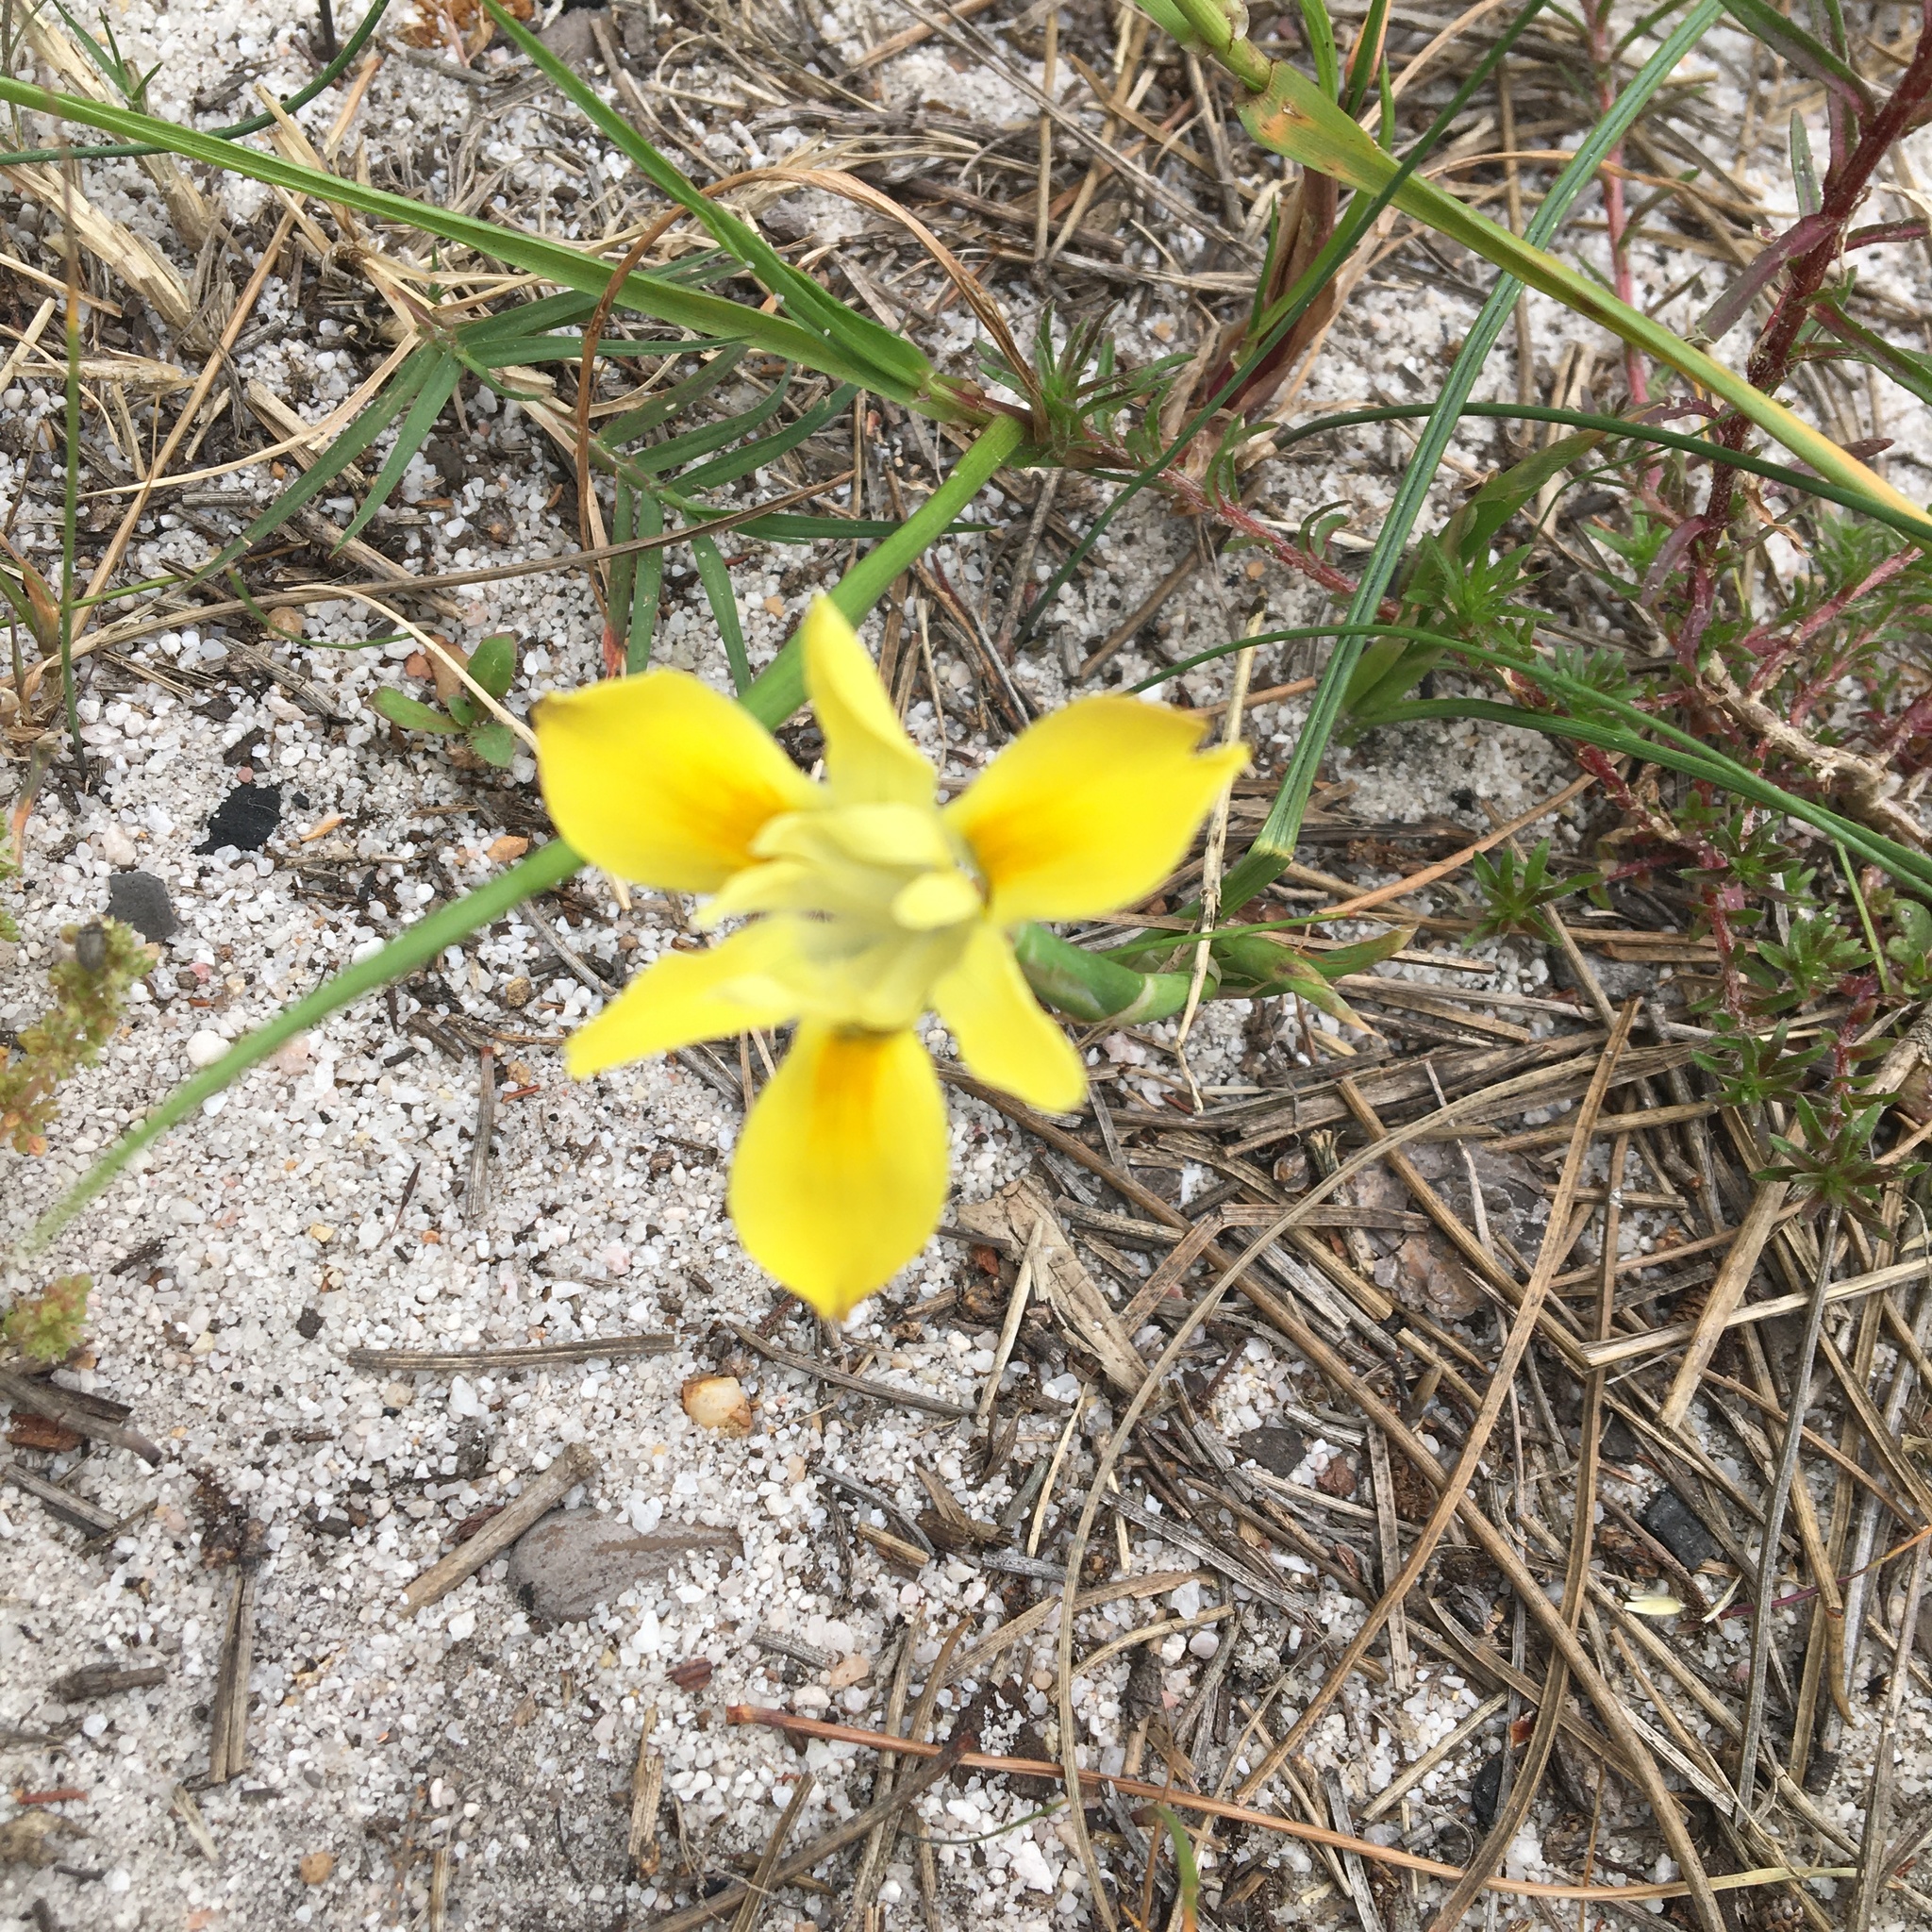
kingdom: Plantae
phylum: Tracheophyta
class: Liliopsida
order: Asparagales
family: Iridaceae
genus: Moraea
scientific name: Moraea fugax
